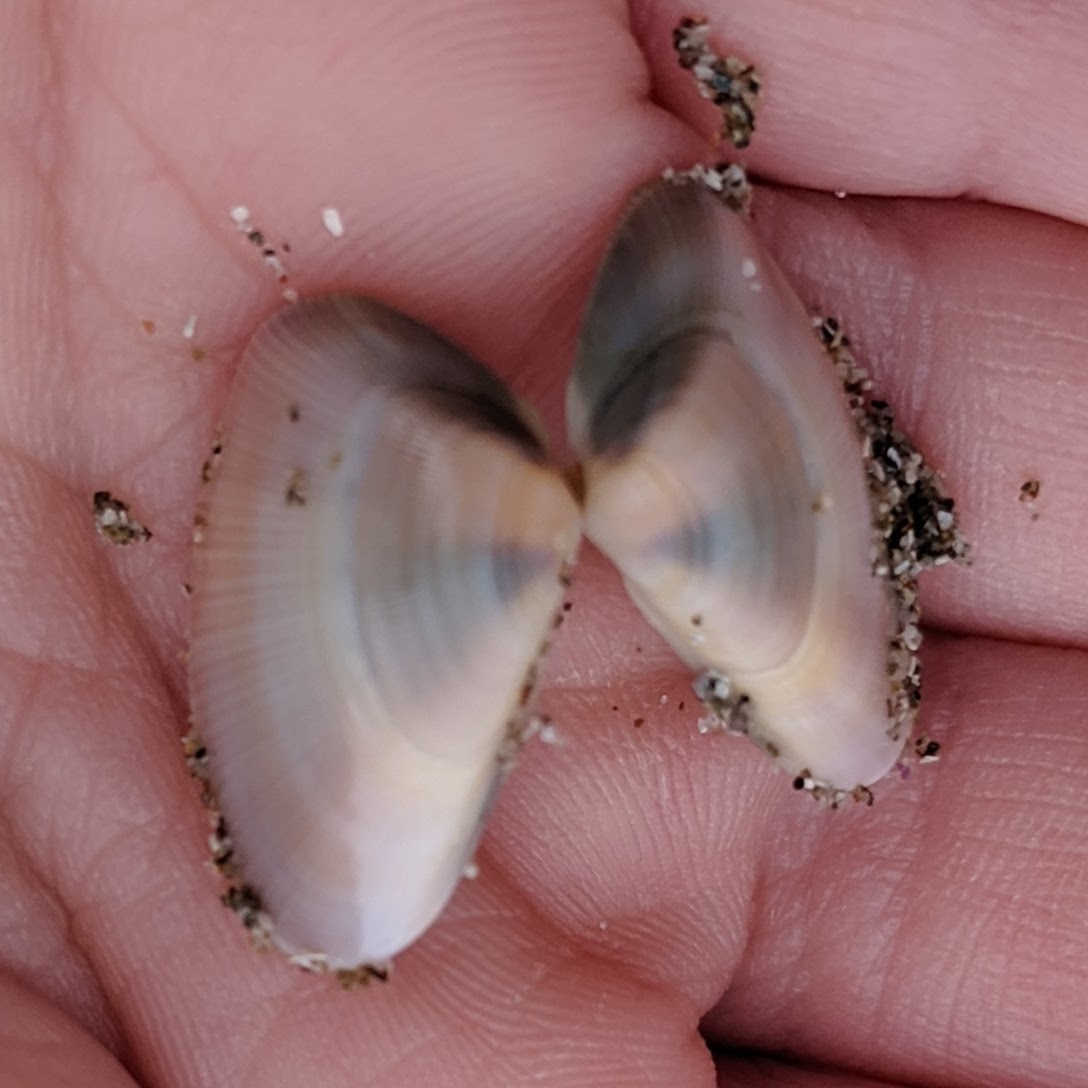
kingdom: Animalia
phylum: Mollusca
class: Bivalvia
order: Cardiida
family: Donacidae
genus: Donax
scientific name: Donax gouldii
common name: Gould beanclam
